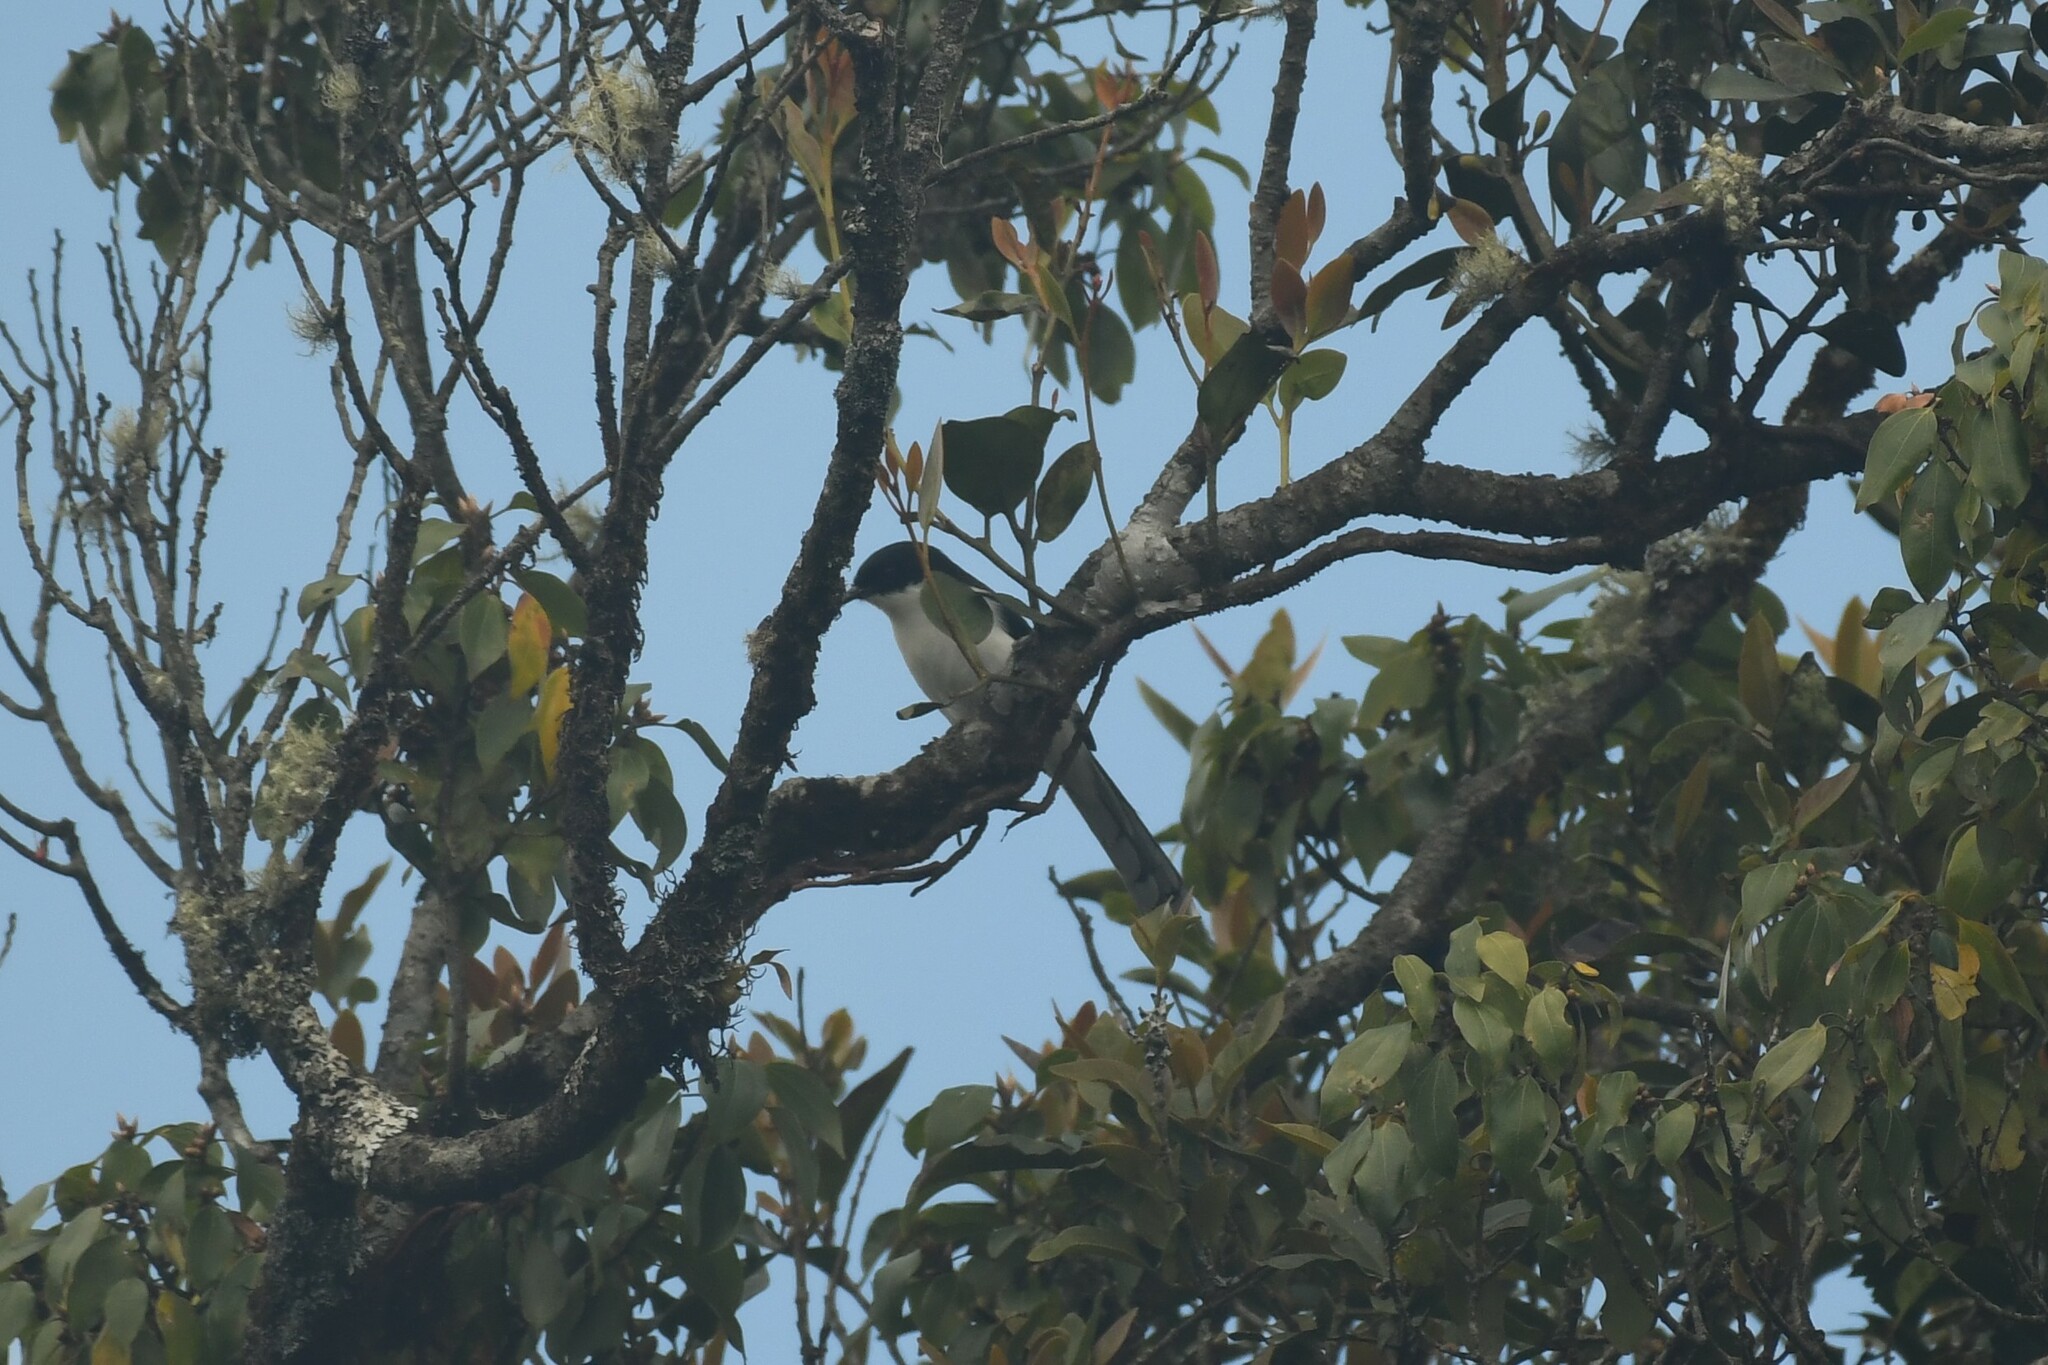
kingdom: Animalia
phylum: Chordata
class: Aves
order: Passeriformes
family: Leiothrichidae
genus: Heterophasia
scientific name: Heterophasia melanoleuca
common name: Dark-backed sibia
